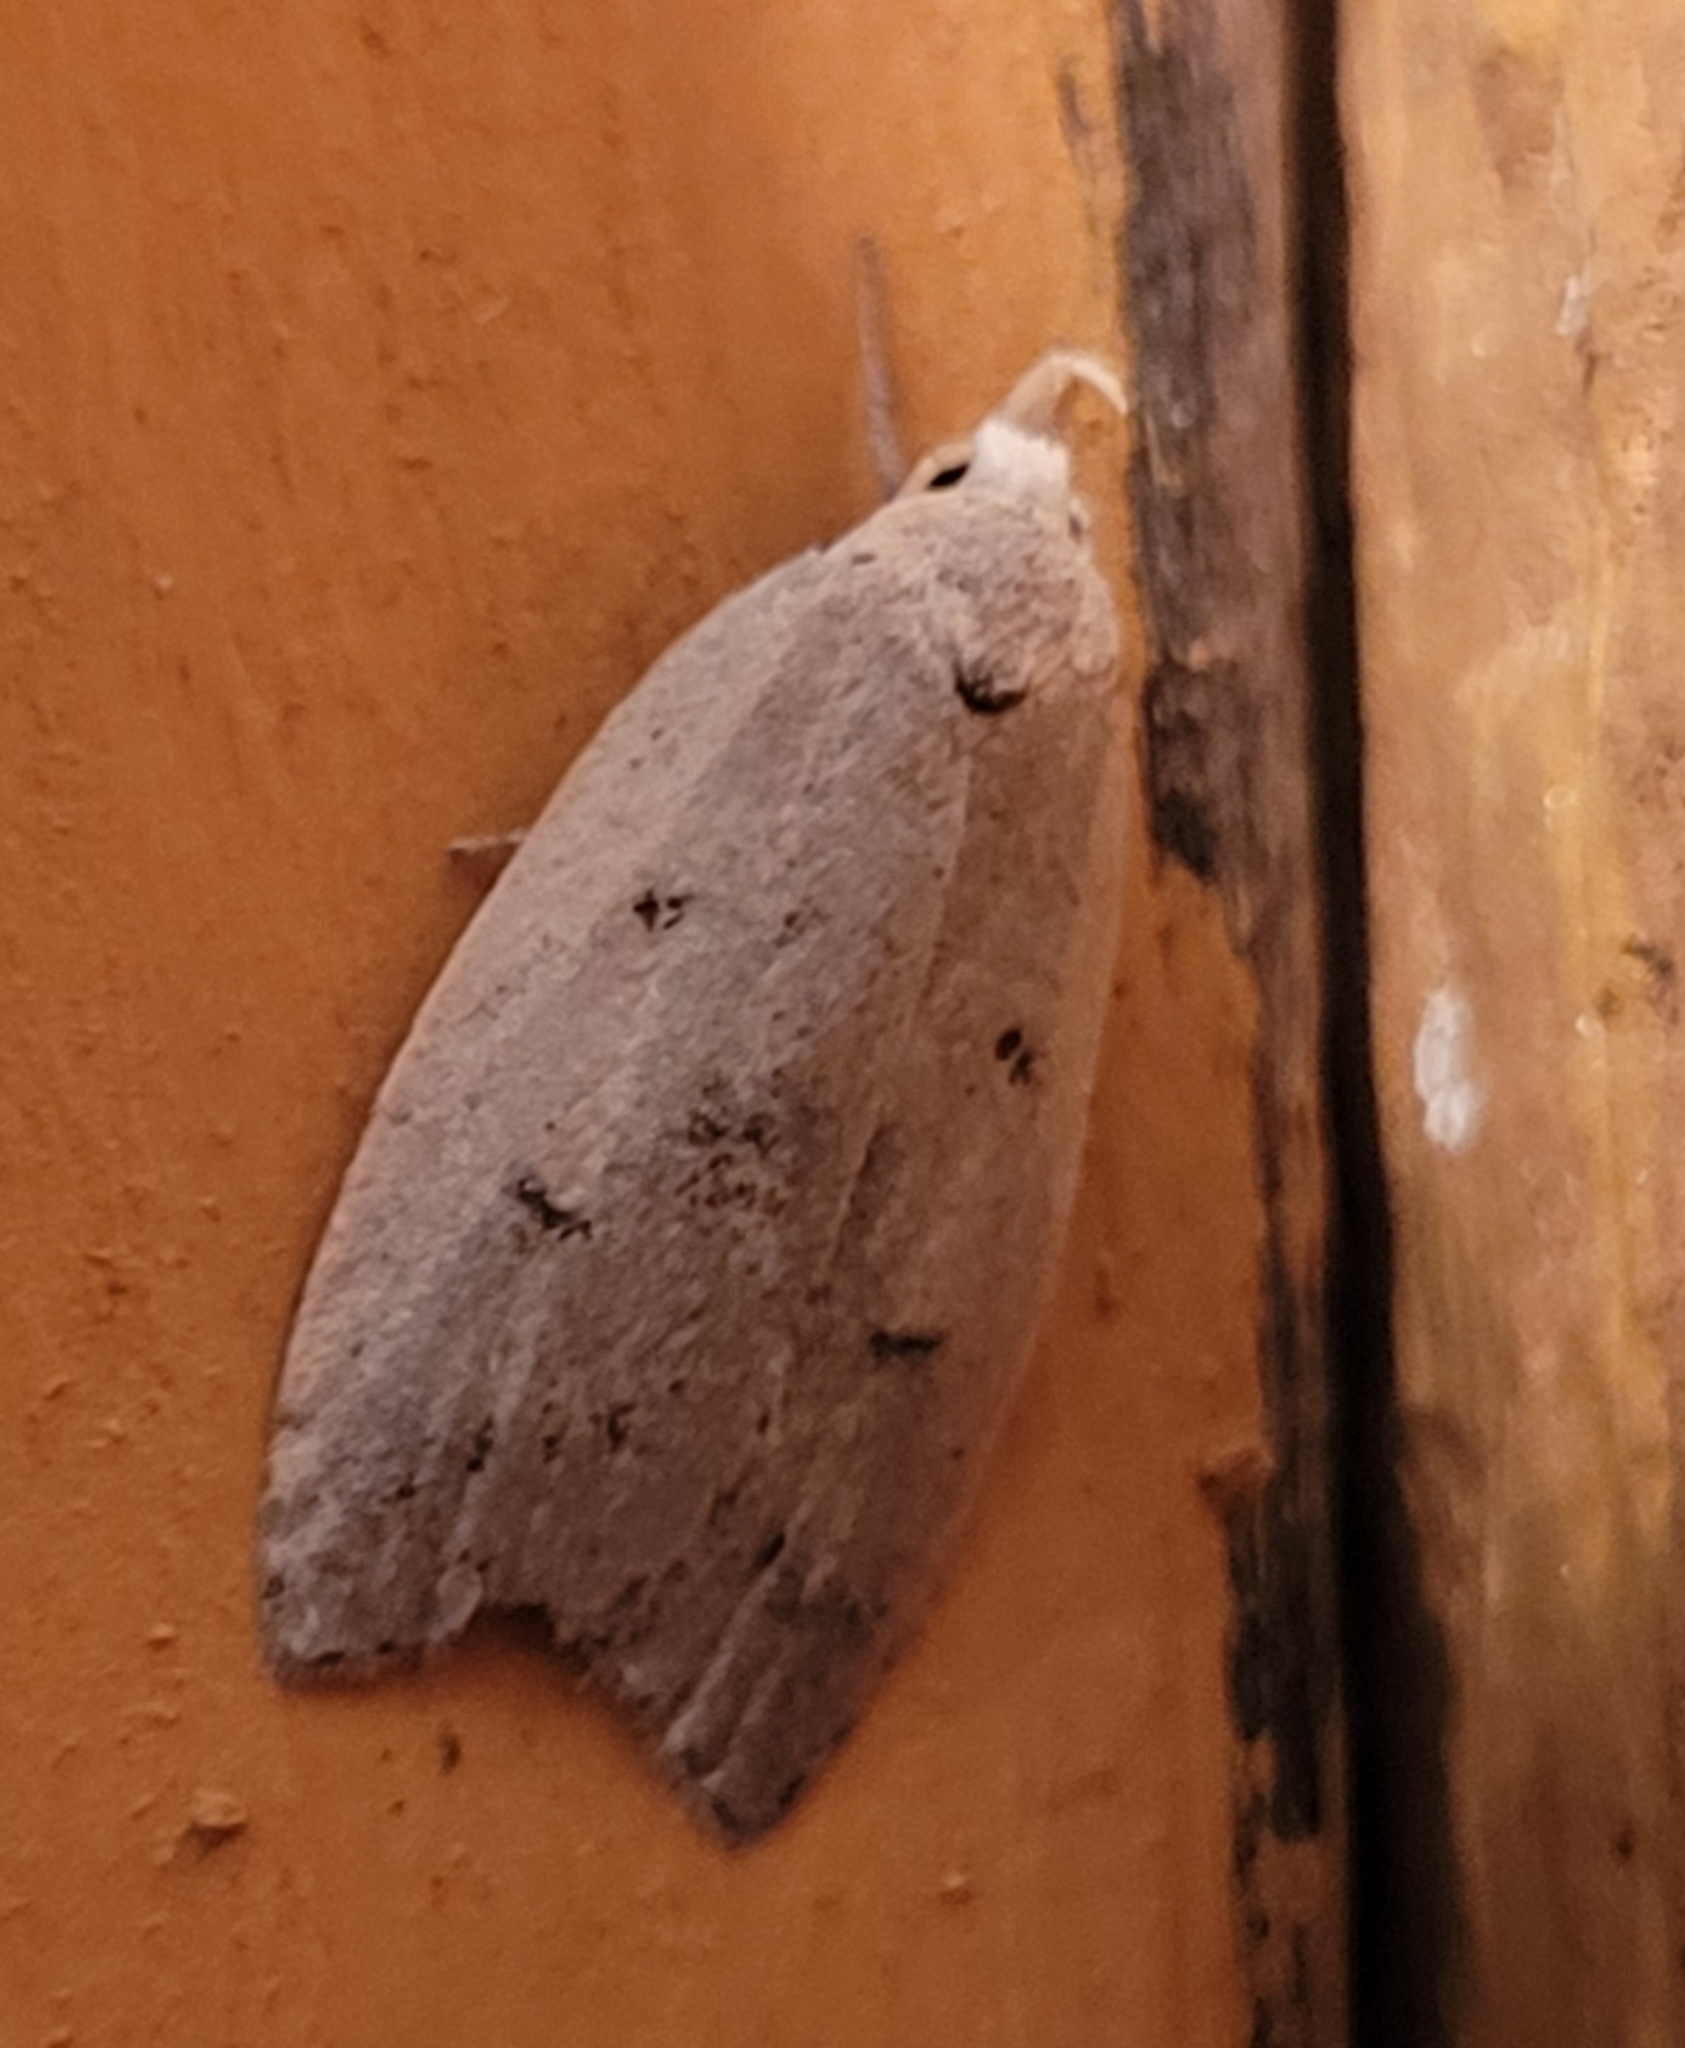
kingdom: Animalia
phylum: Arthropoda
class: Insecta
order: Lepidoptera
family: Peleopodidae
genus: Machimia
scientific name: Machimia tentoriferella
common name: Gold-striped leaftier moth
